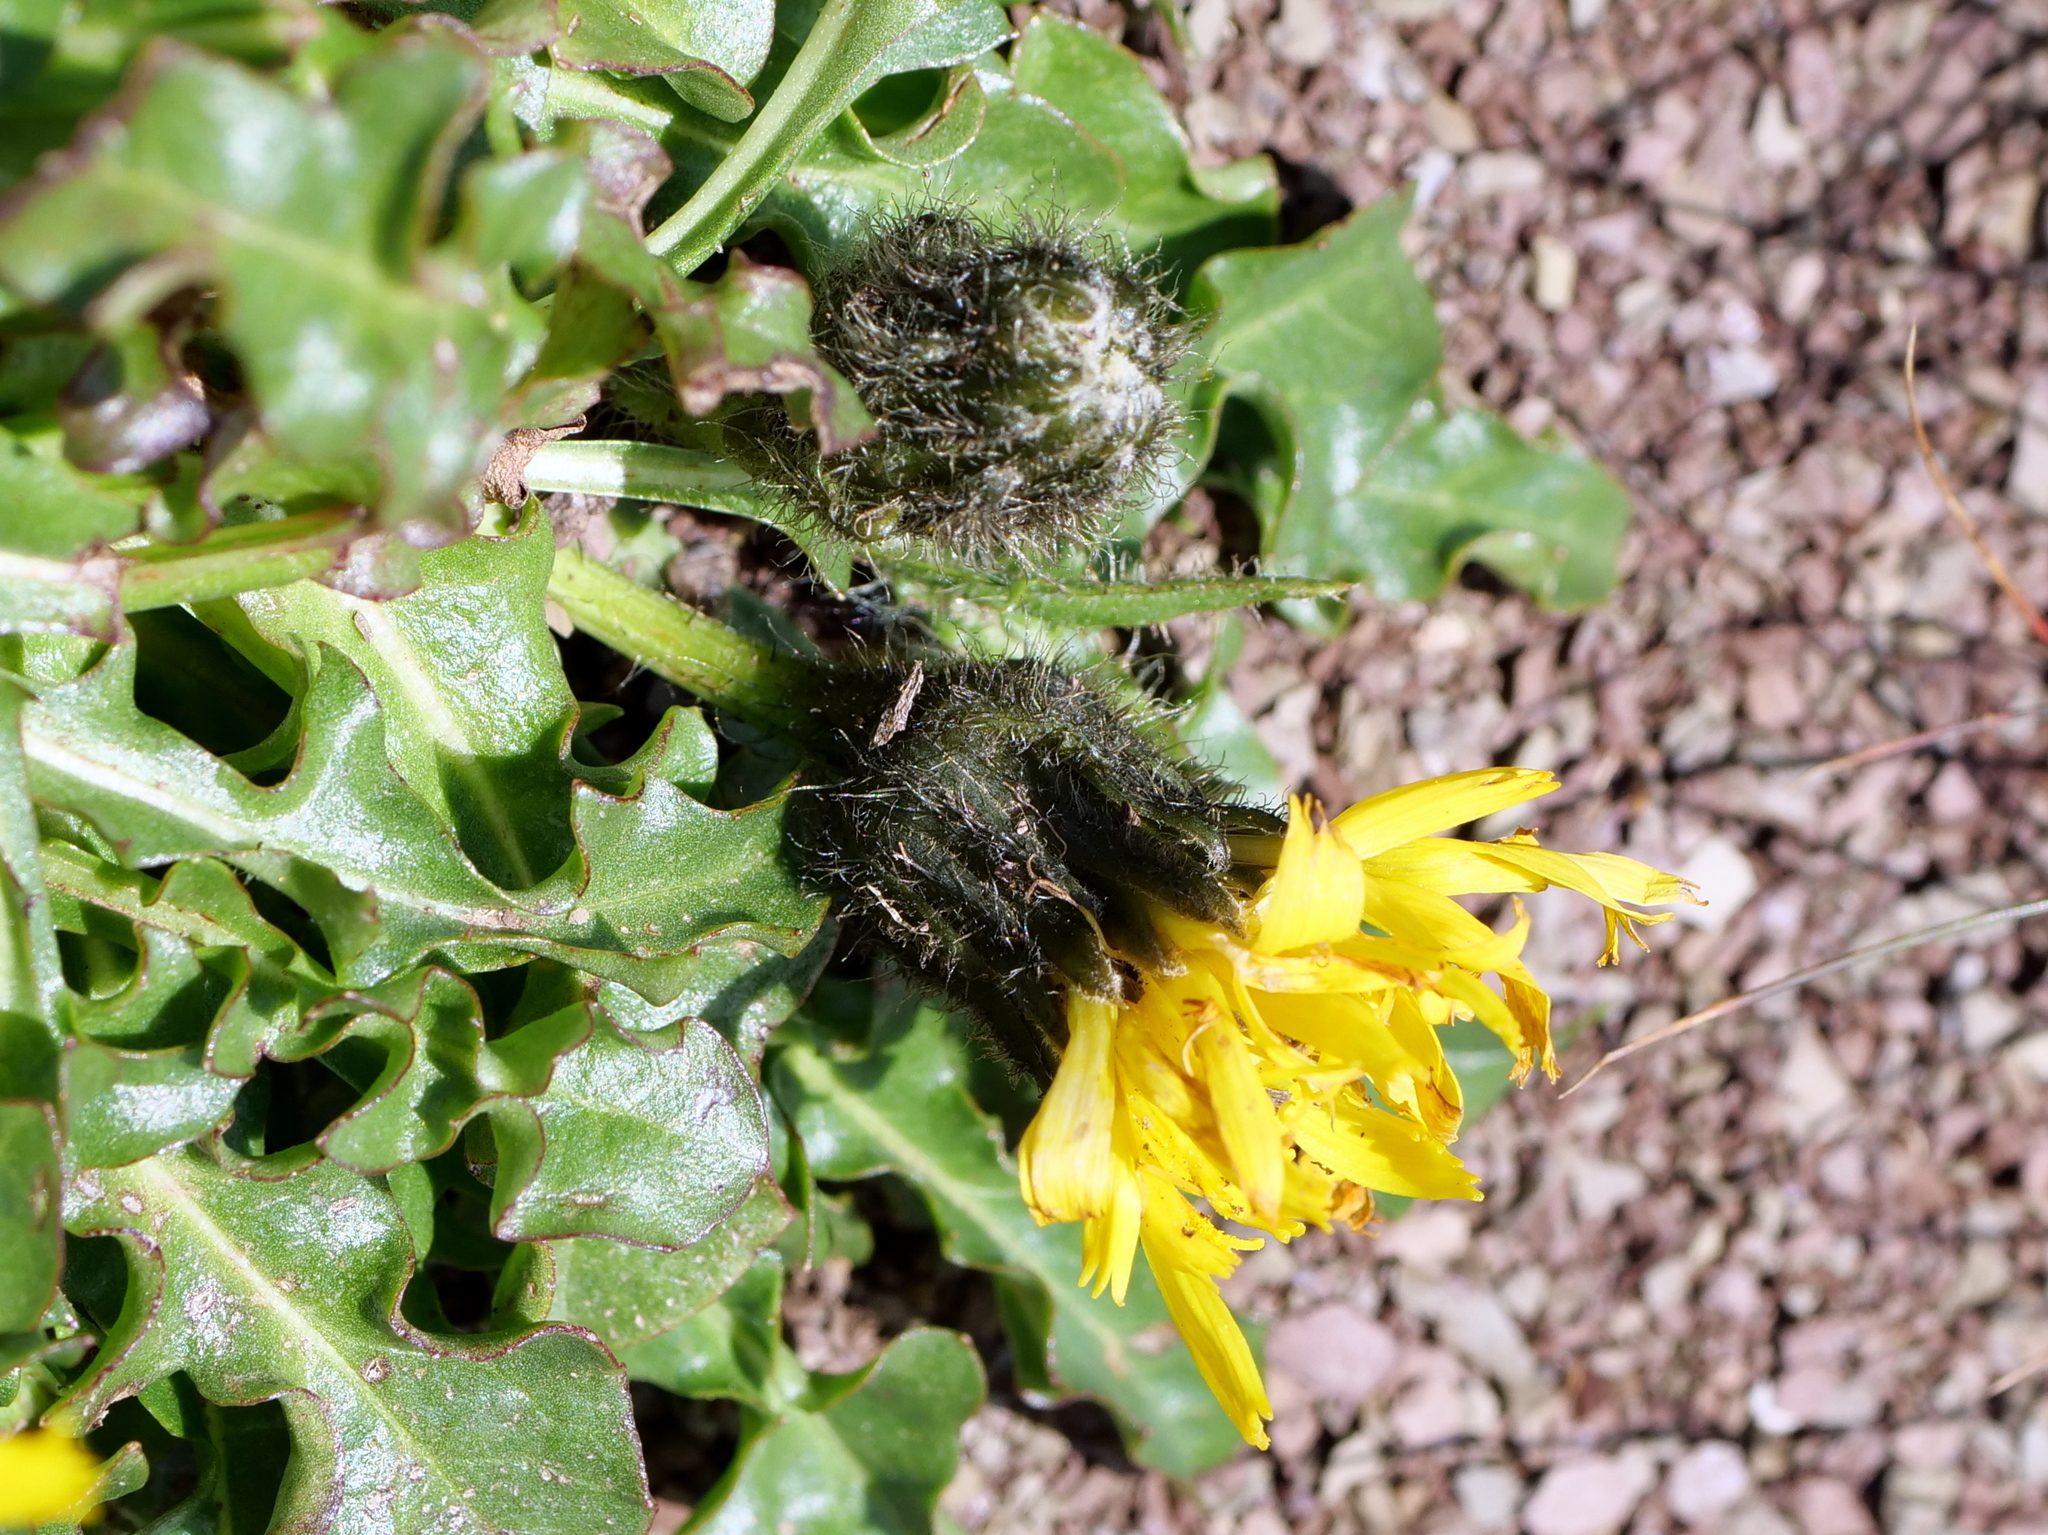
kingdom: Plantae
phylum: Tracheophyta
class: Magnoliopsida
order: Asterales
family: Asteraceae
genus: Crepis
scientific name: Crepis terglouensis
